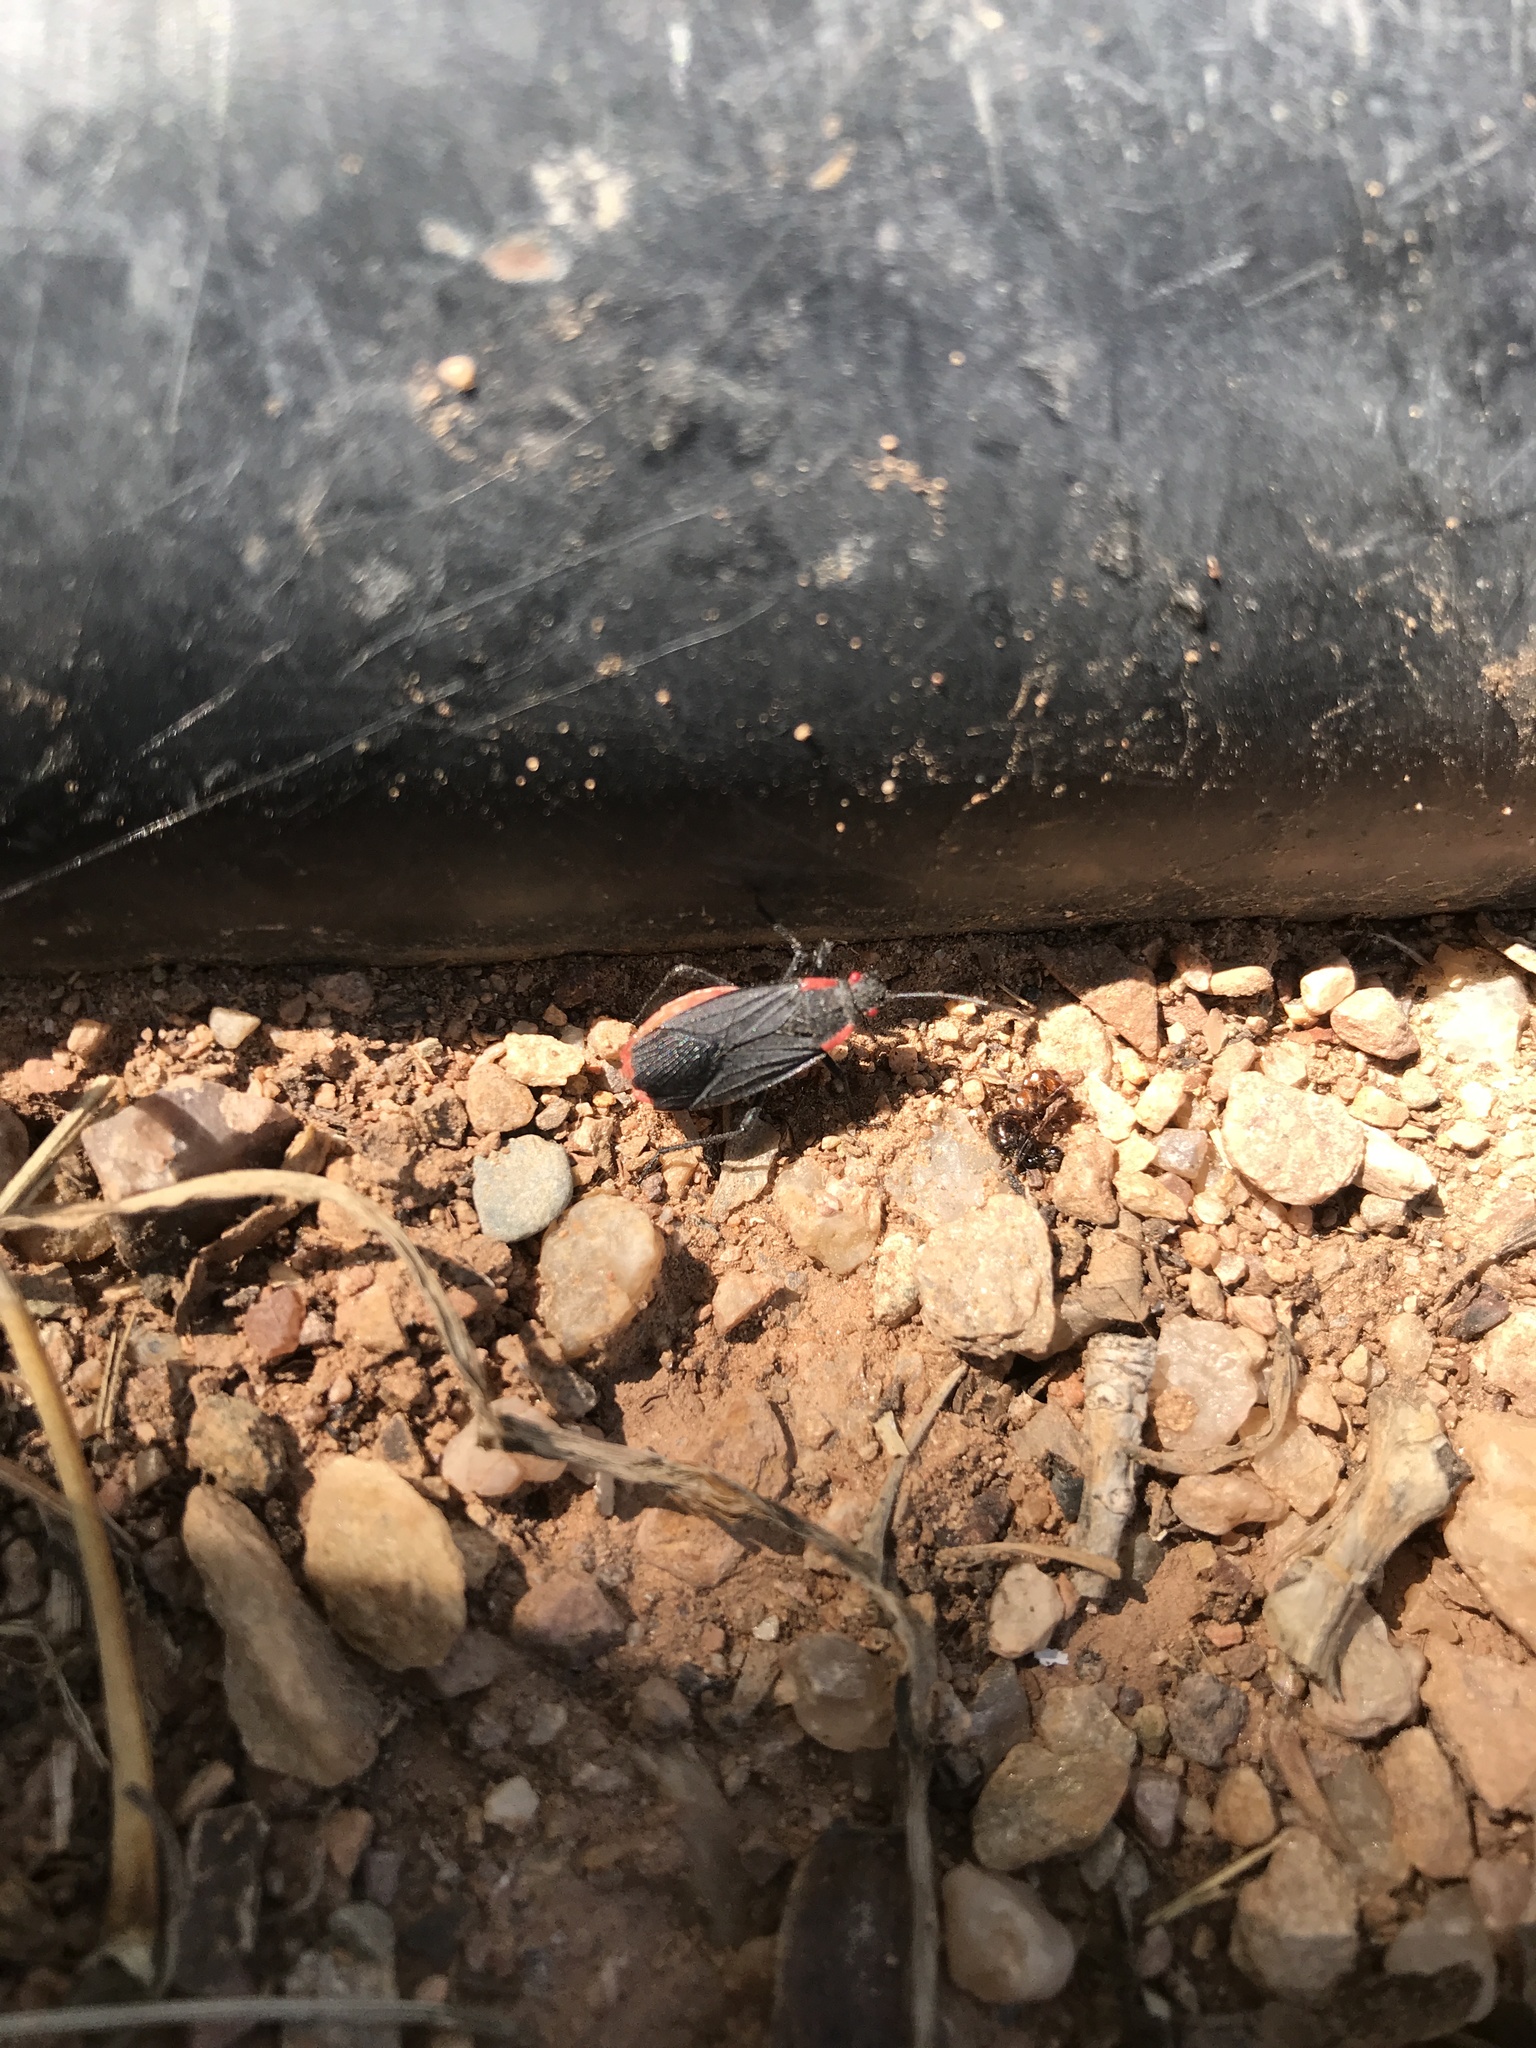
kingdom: Animalia
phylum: Arthropoda
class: Insecta
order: Hemiptera
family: Rhopalidae
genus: Jadera
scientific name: Jadera haematoloma
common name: Red-shouldered bug
